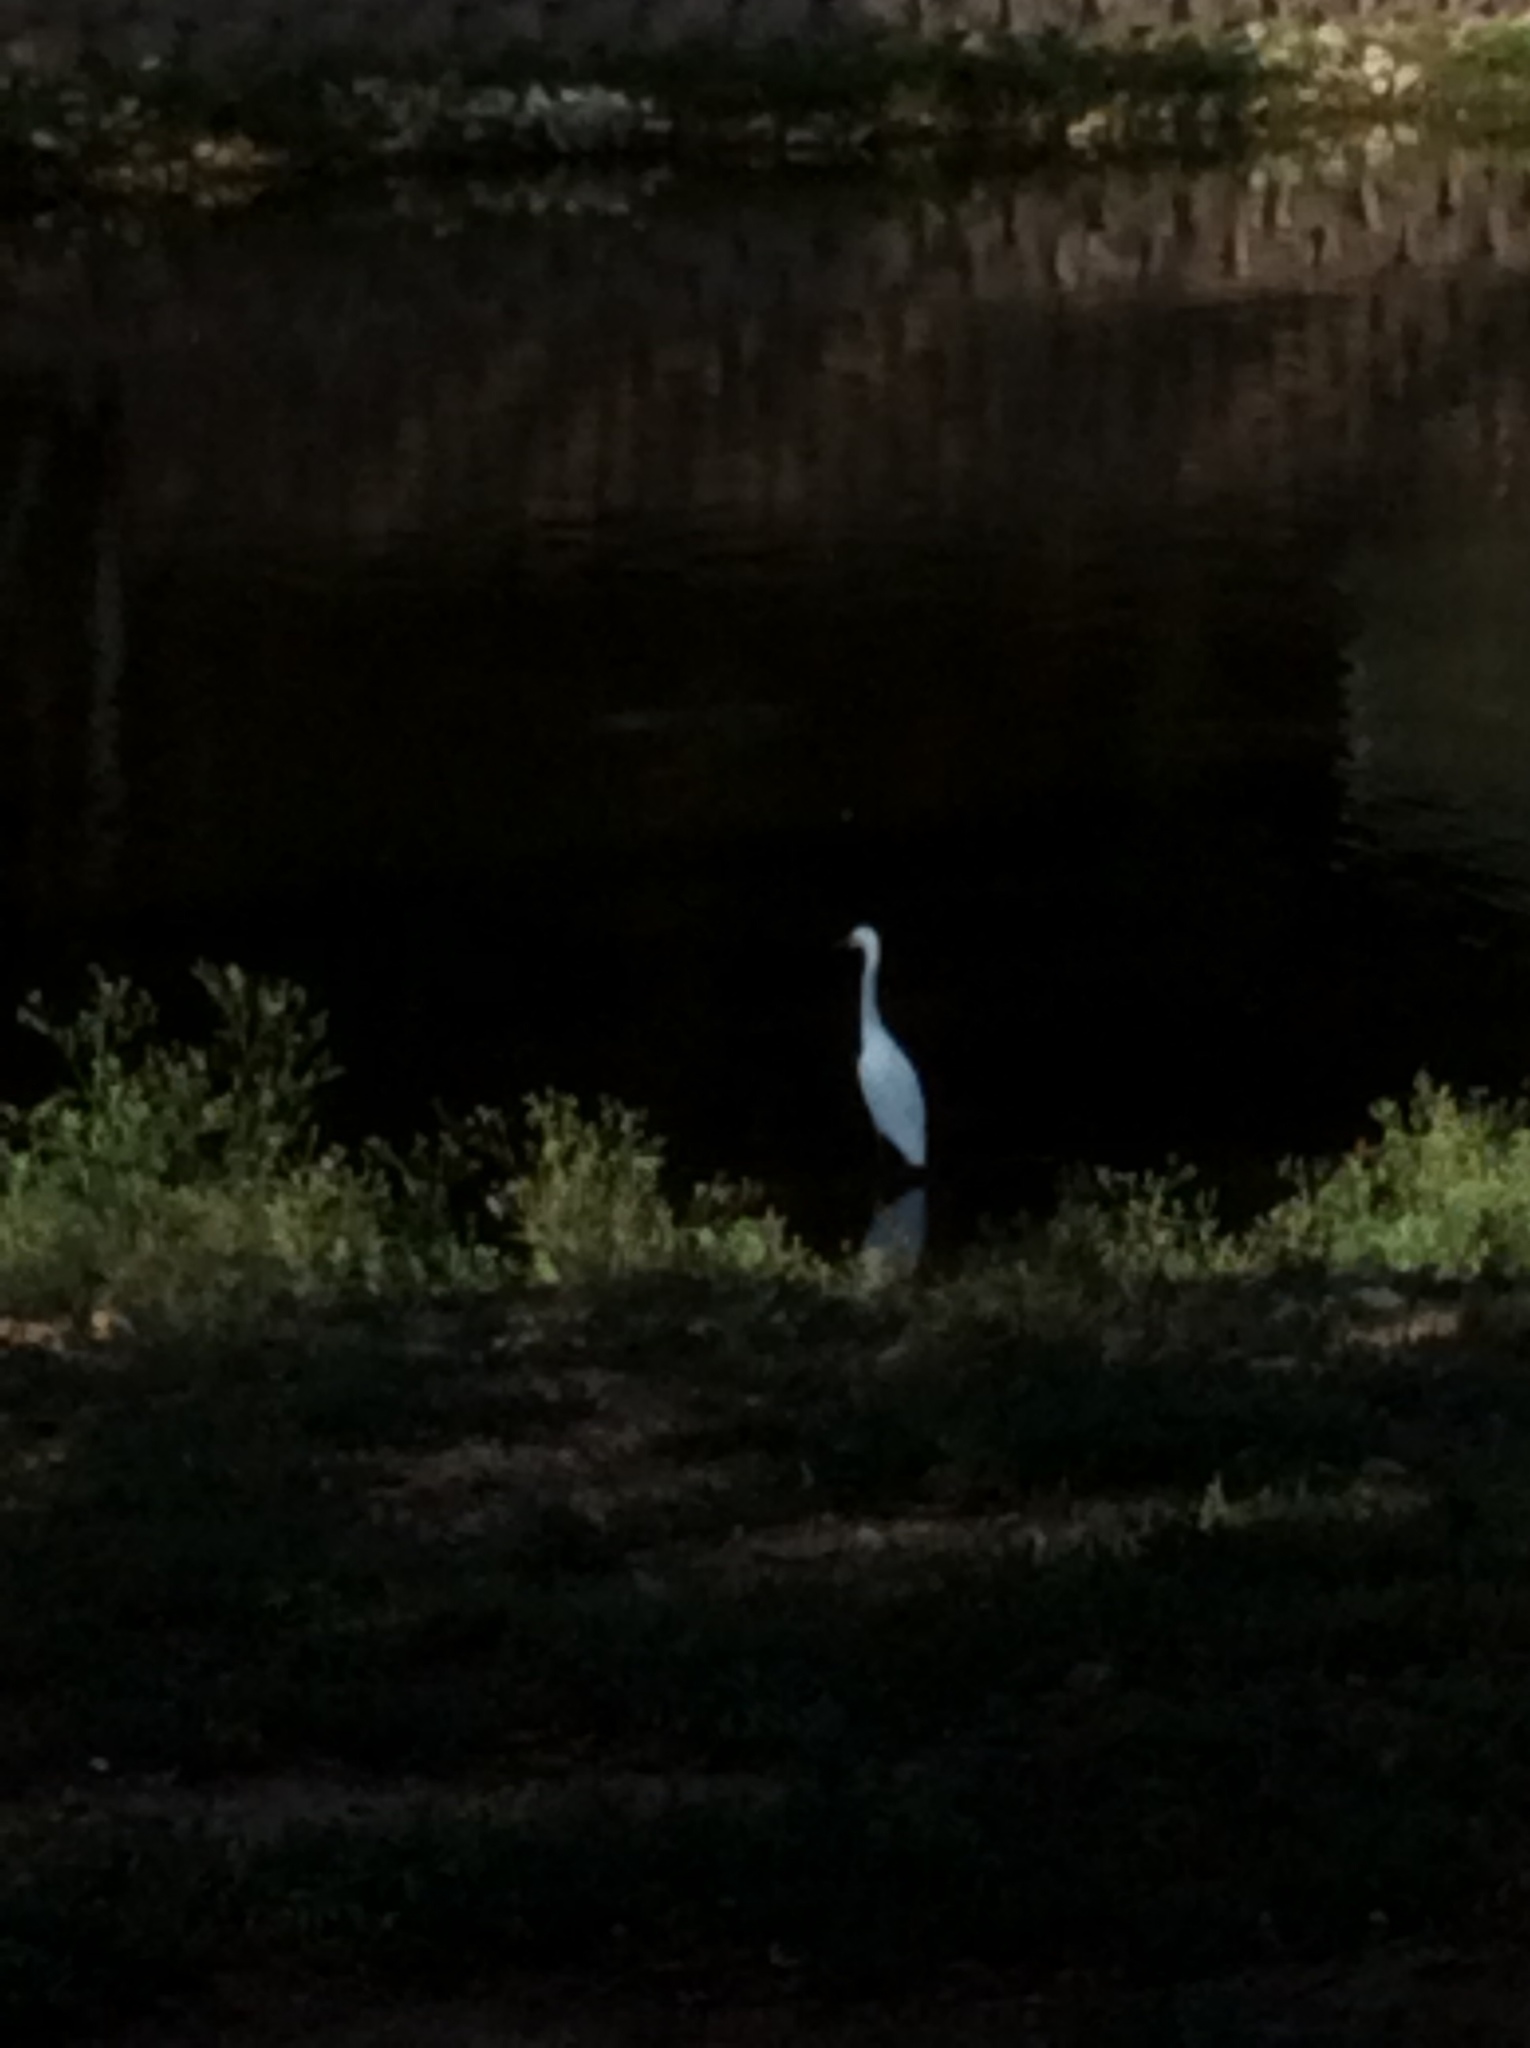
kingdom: Animalia
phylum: Chordata
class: Aves
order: Pelecaniformes
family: Ardeidae
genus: Egretta
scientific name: Egretta thula
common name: Snowy egret
